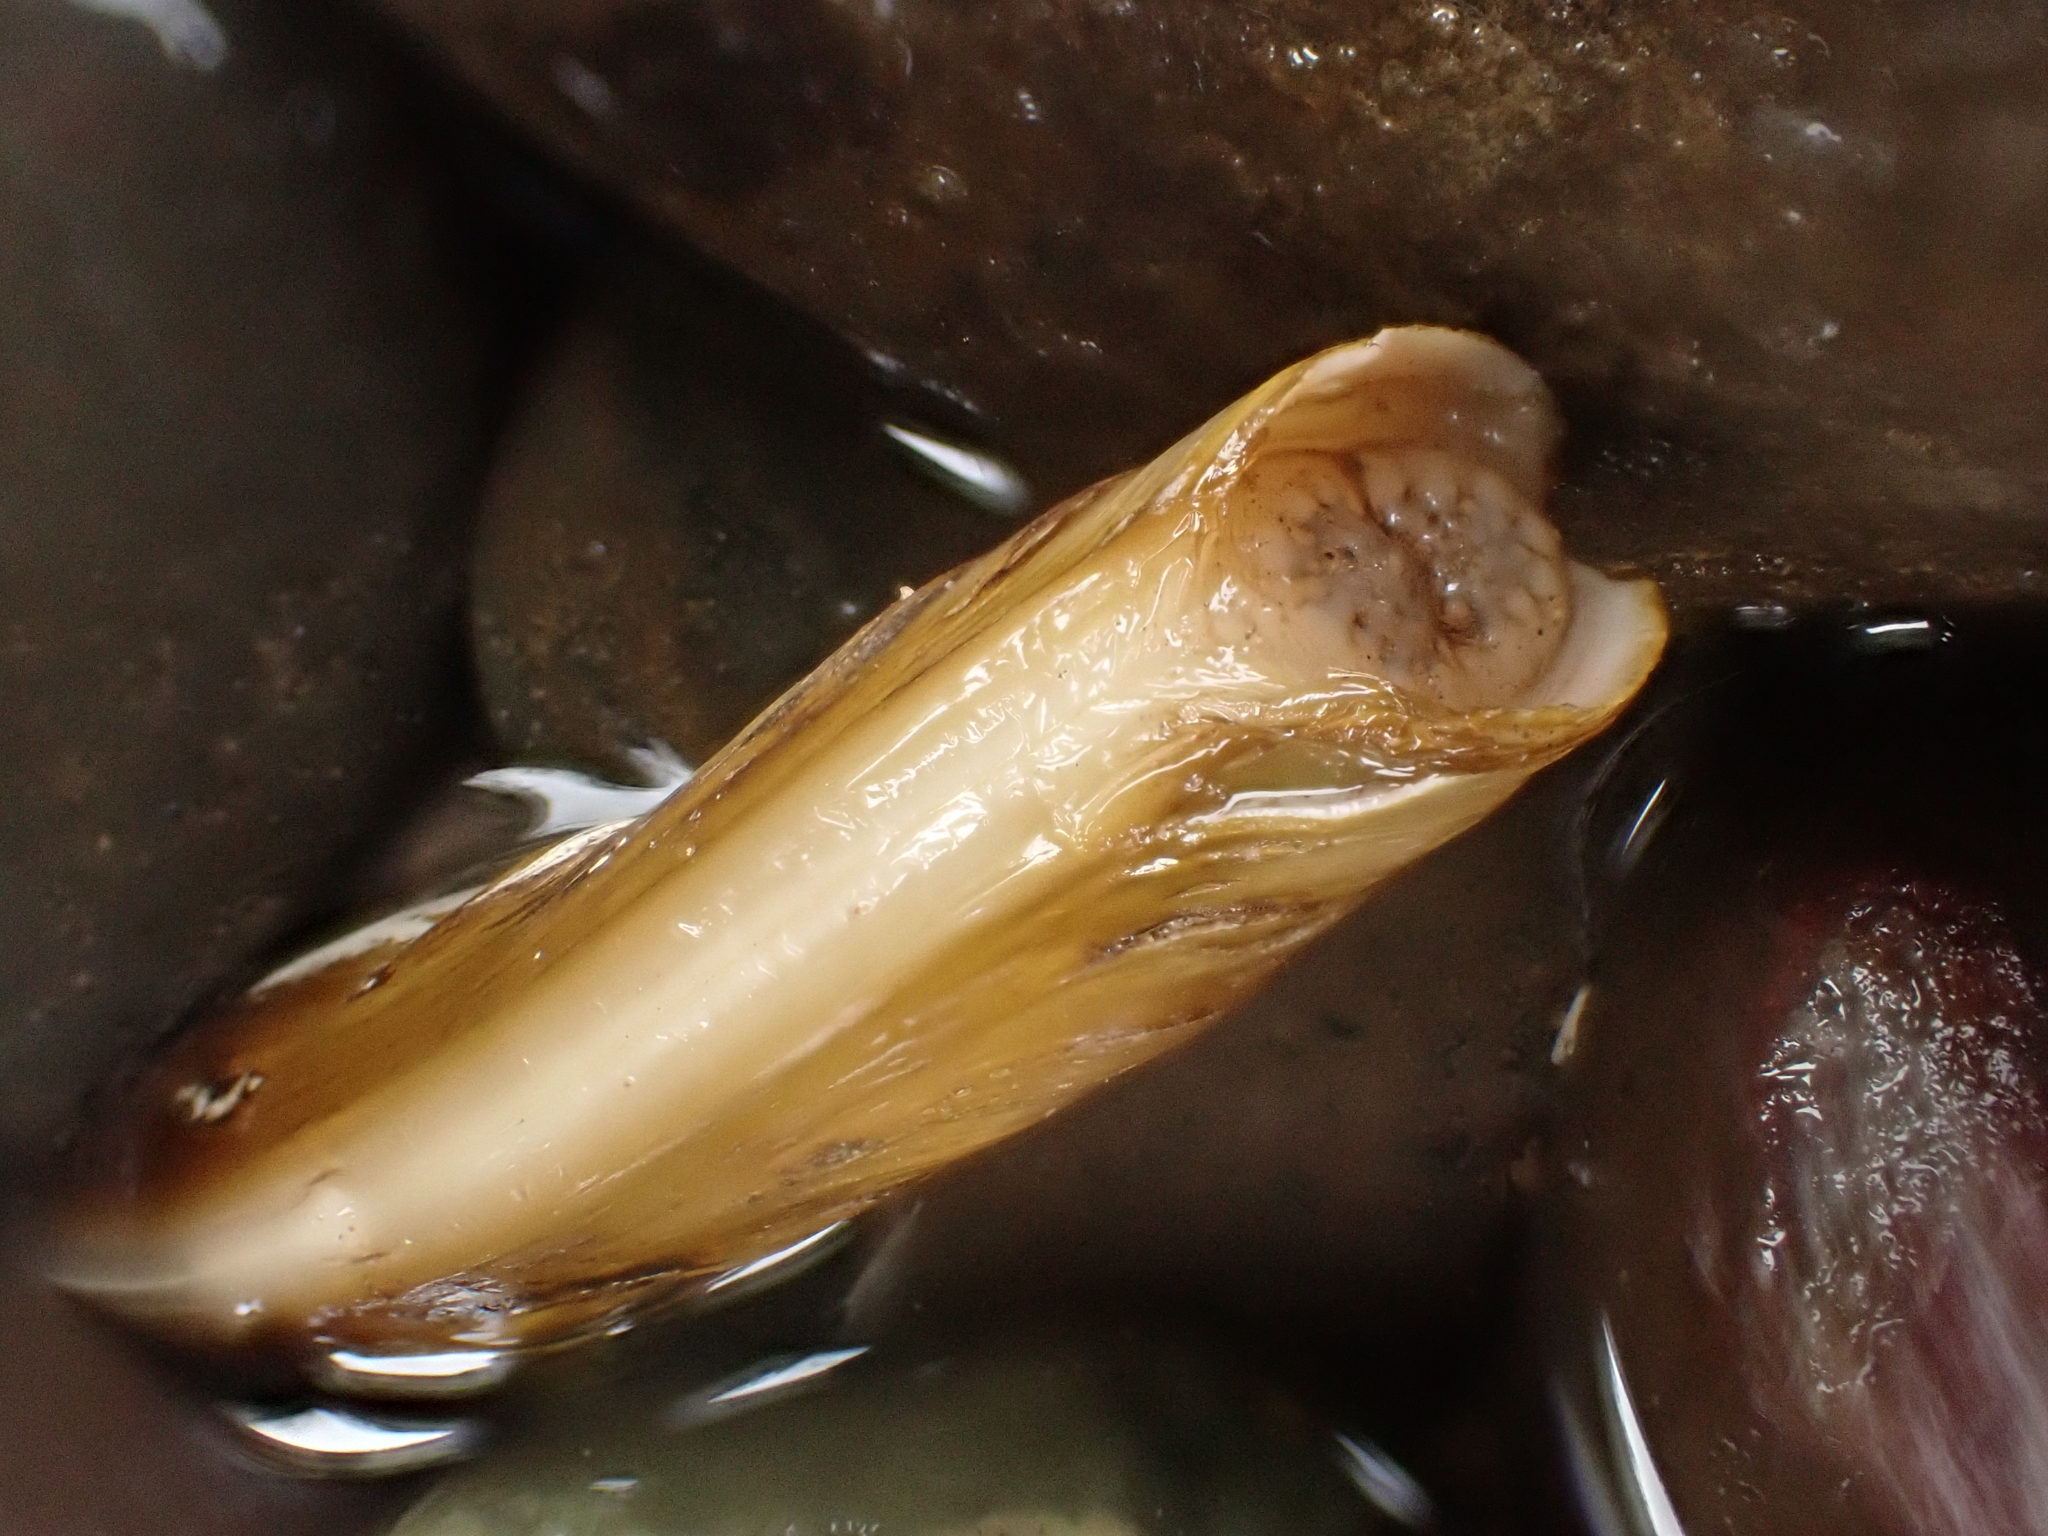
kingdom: Animalia
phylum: Mollusca
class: Bivalvia
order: Adapedonta
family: Pharidae
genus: Ensis
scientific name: Ensis leei
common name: American jack knife clam
